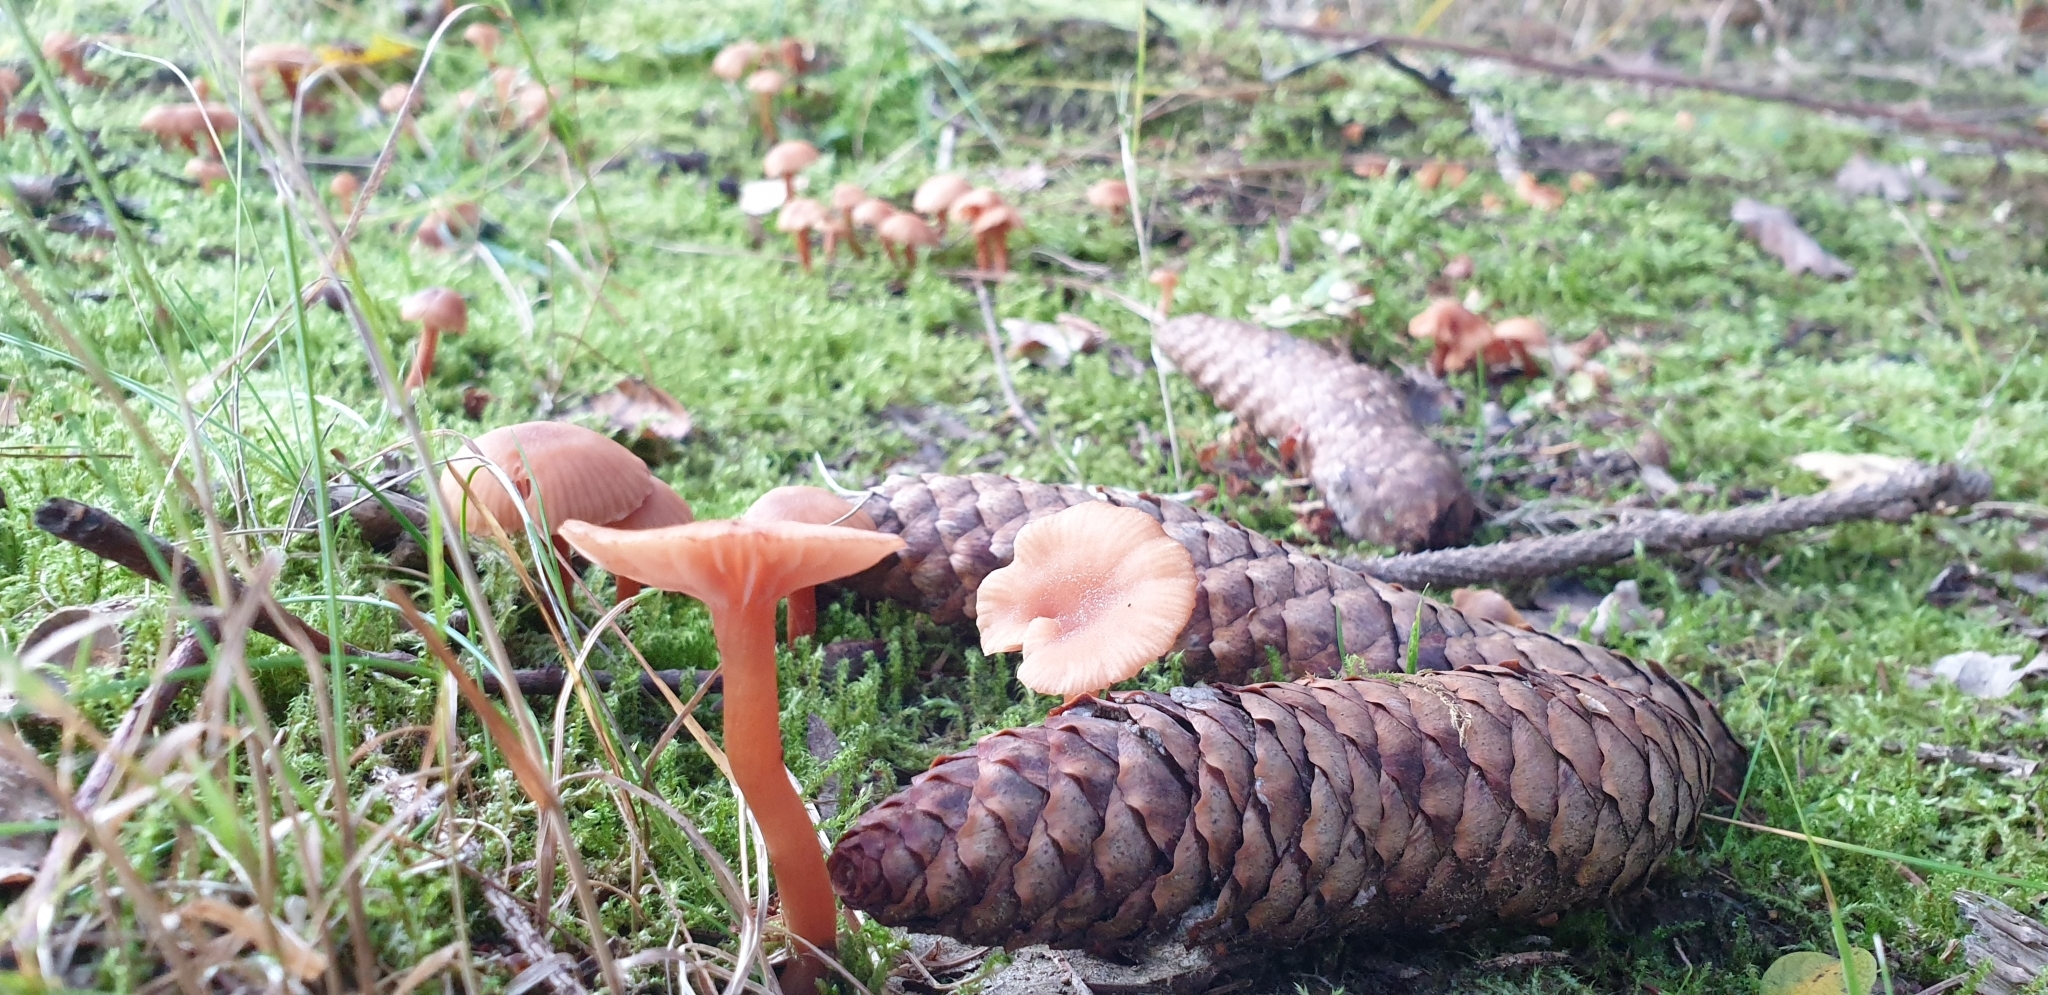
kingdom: Fungi
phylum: Basidiomycota
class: Agaricomycetes
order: Agaricales
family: Hydnangiaceae
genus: Laccaria
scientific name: Laccaria laccata
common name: Deceiver
